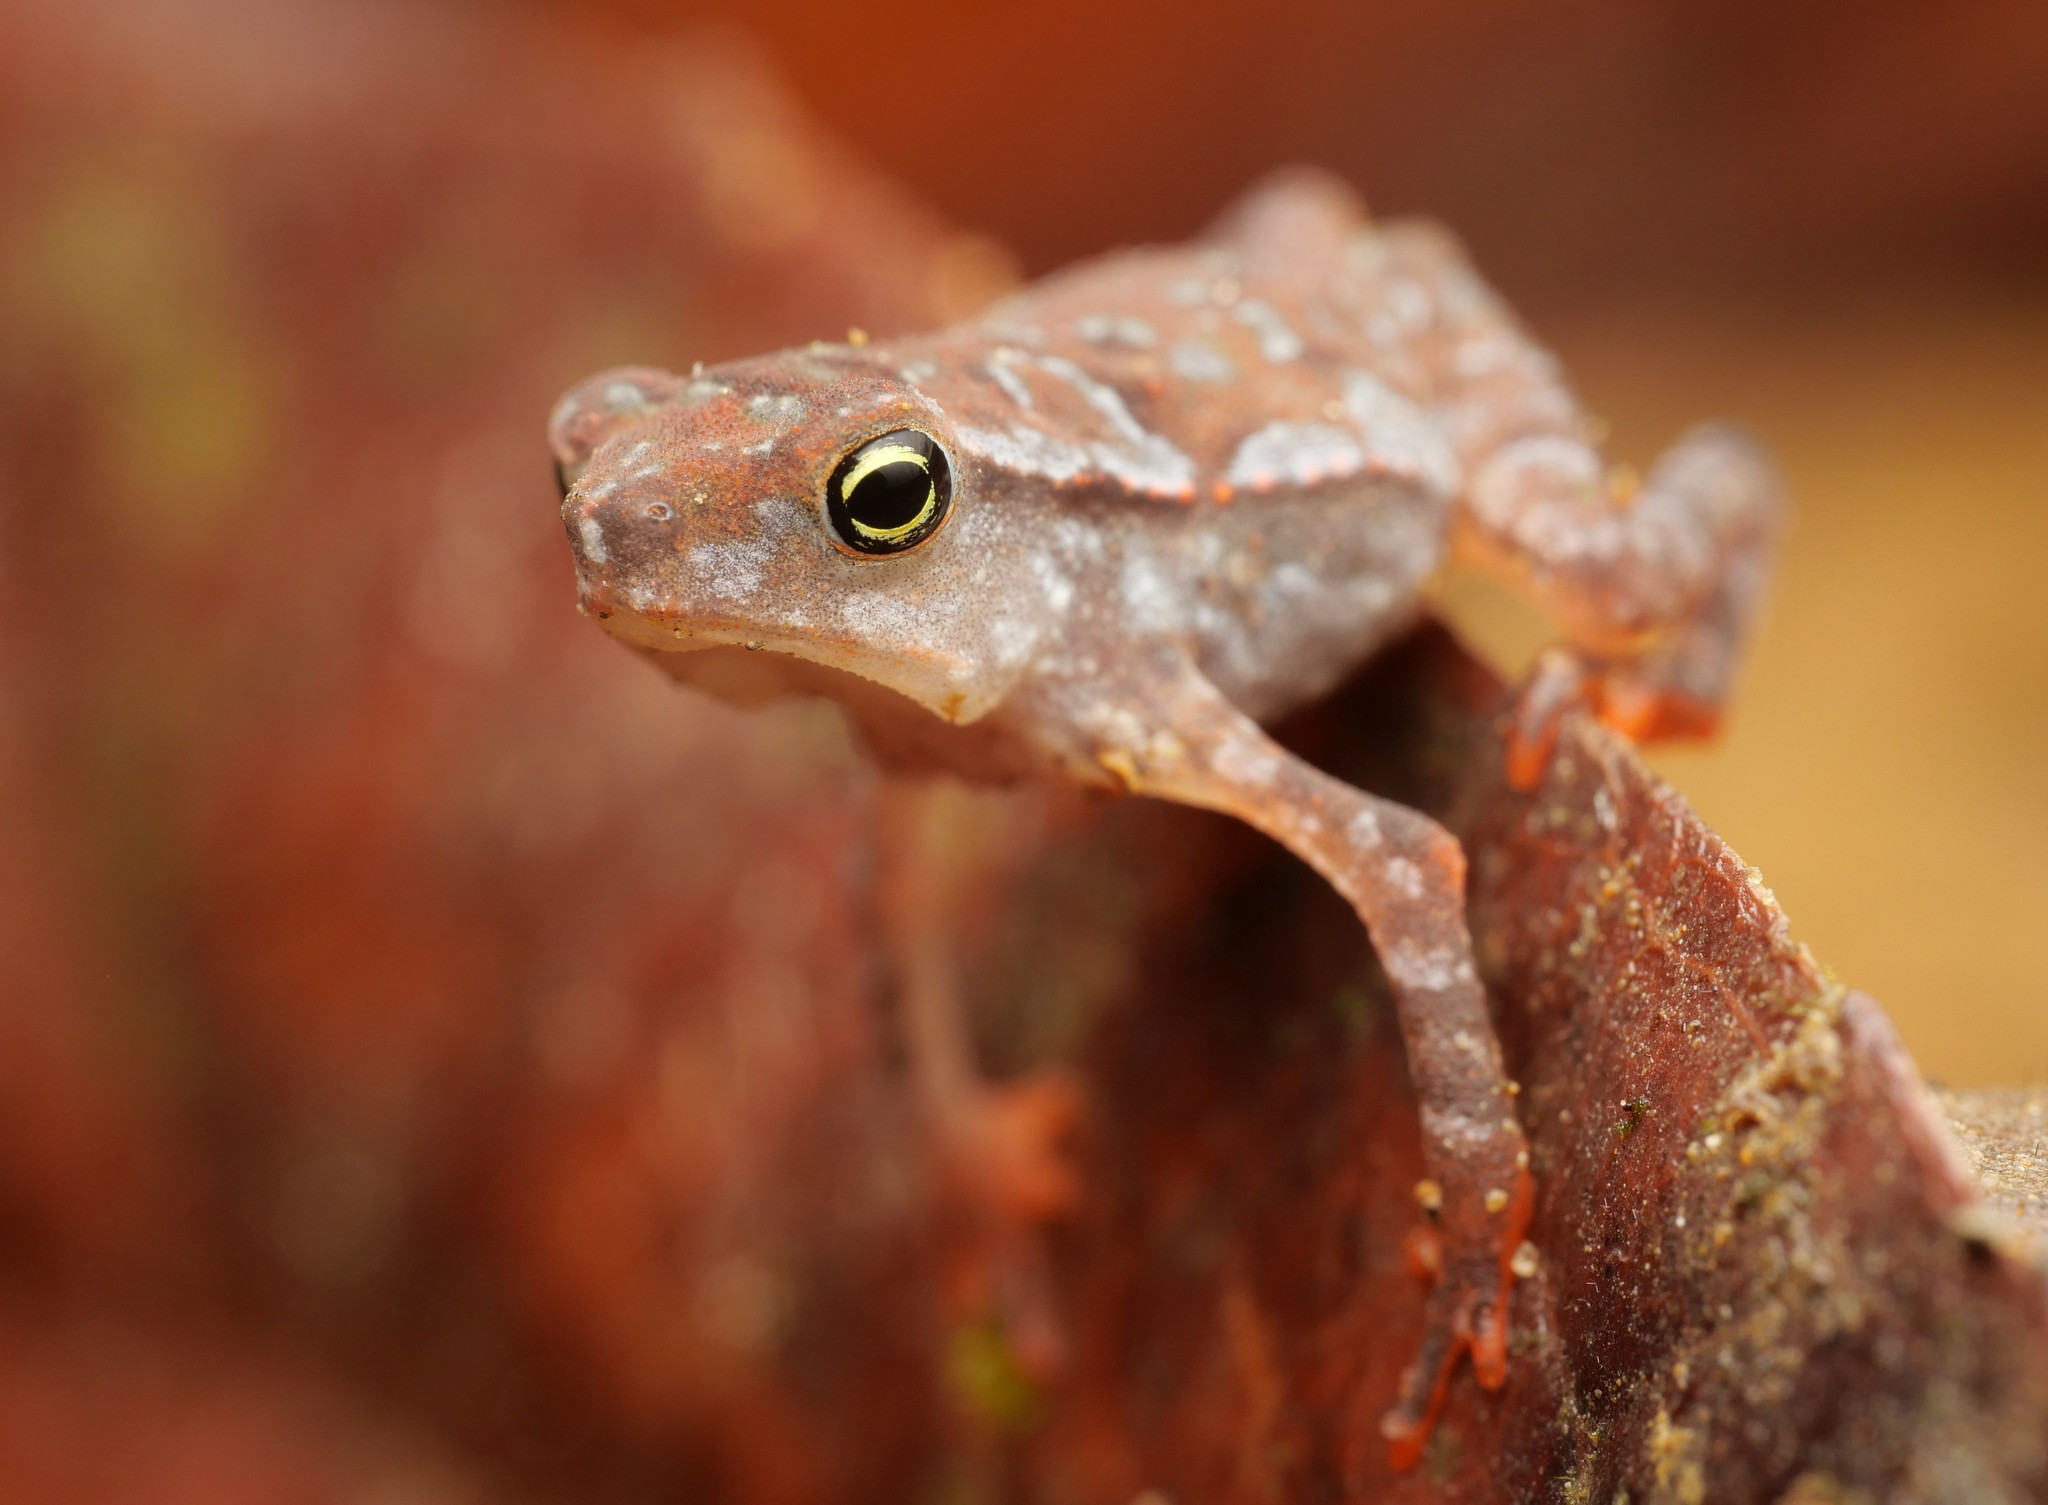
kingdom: Animalia
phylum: Chordata
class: Amphibia
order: Anura
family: Bufonidae
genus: Rhinella
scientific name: Rhinella alata
